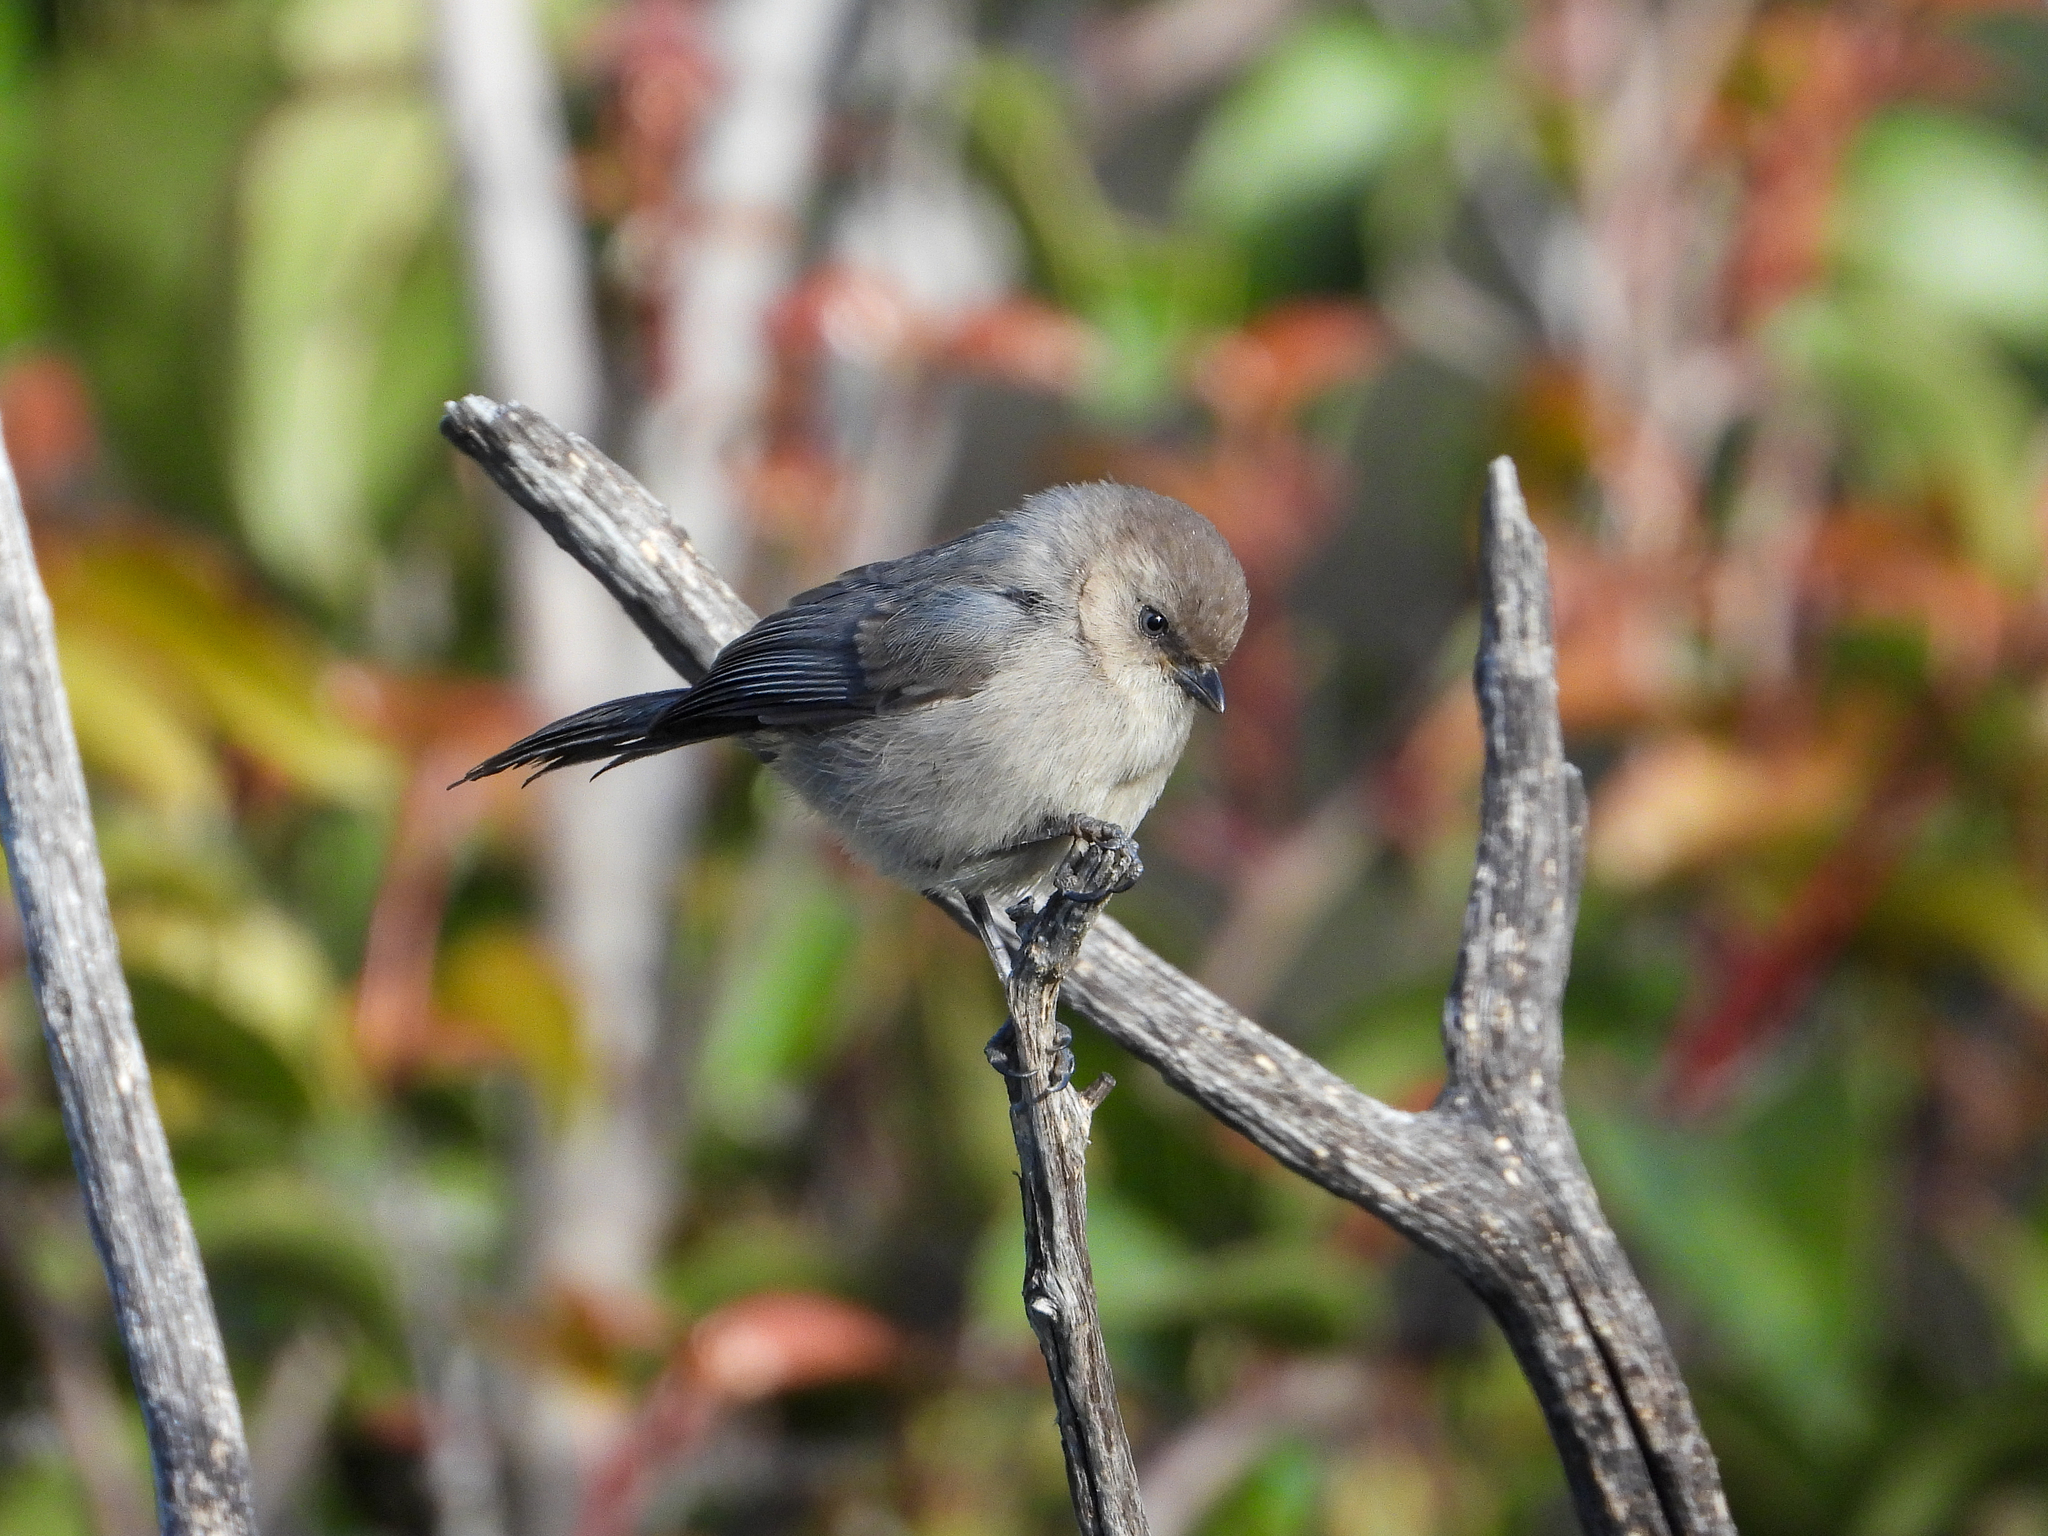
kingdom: Animalia
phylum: Chordata
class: Aves
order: Passeriformes
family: Aegithalidae
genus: Psaltriparus
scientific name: Psaltriparus minimus
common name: American bushtit
